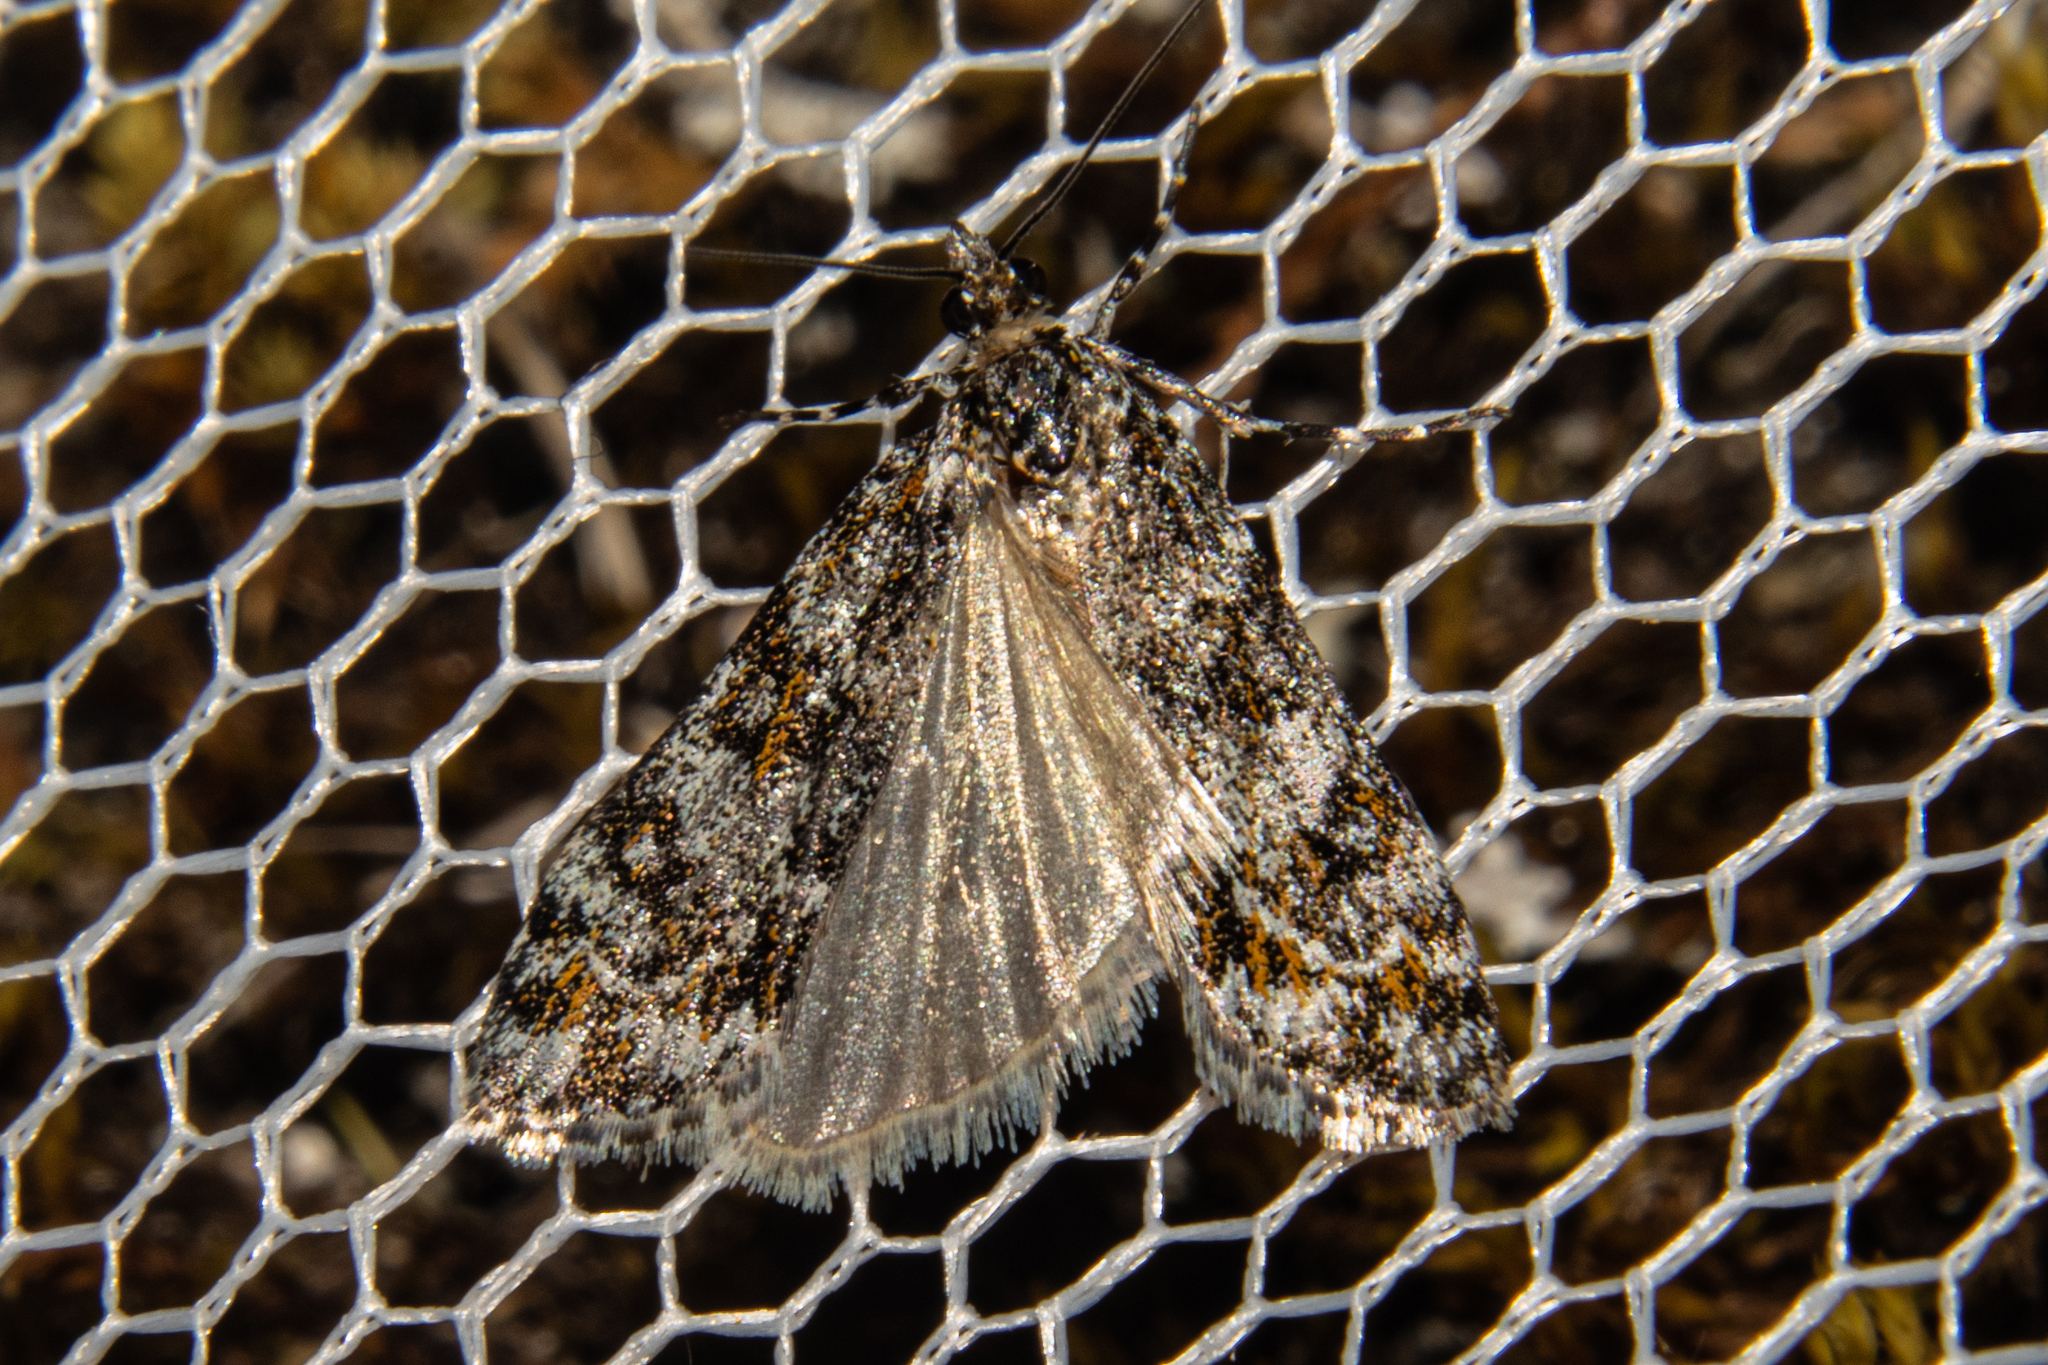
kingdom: Animalia
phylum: Arthropoda
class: Insecta
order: Lepidoptera
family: Crambidae
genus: Eudonia
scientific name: Eudonia
